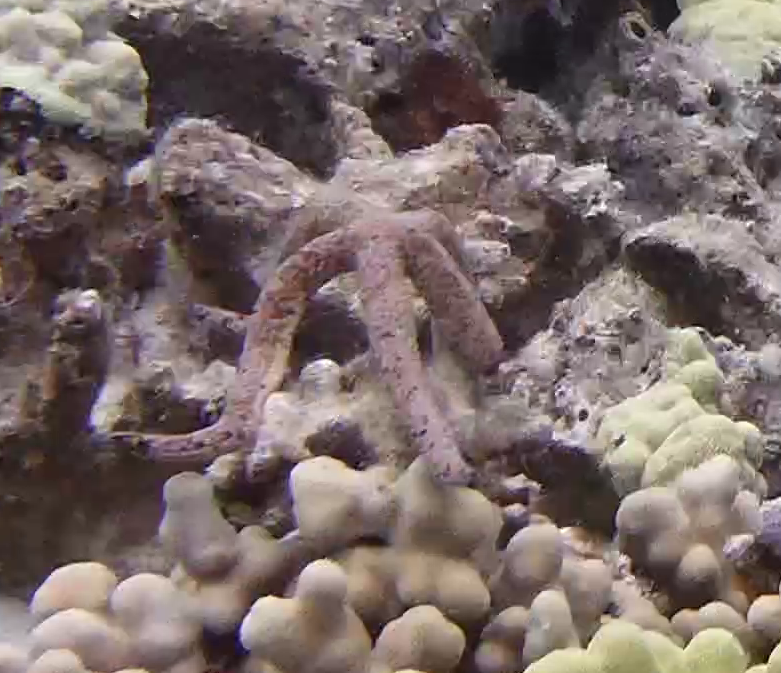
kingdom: Animalia
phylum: Echinodermata
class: Asteroidea
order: Valvatida
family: Ophidiasteridae
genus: Linckia
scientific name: Linckia multifora
